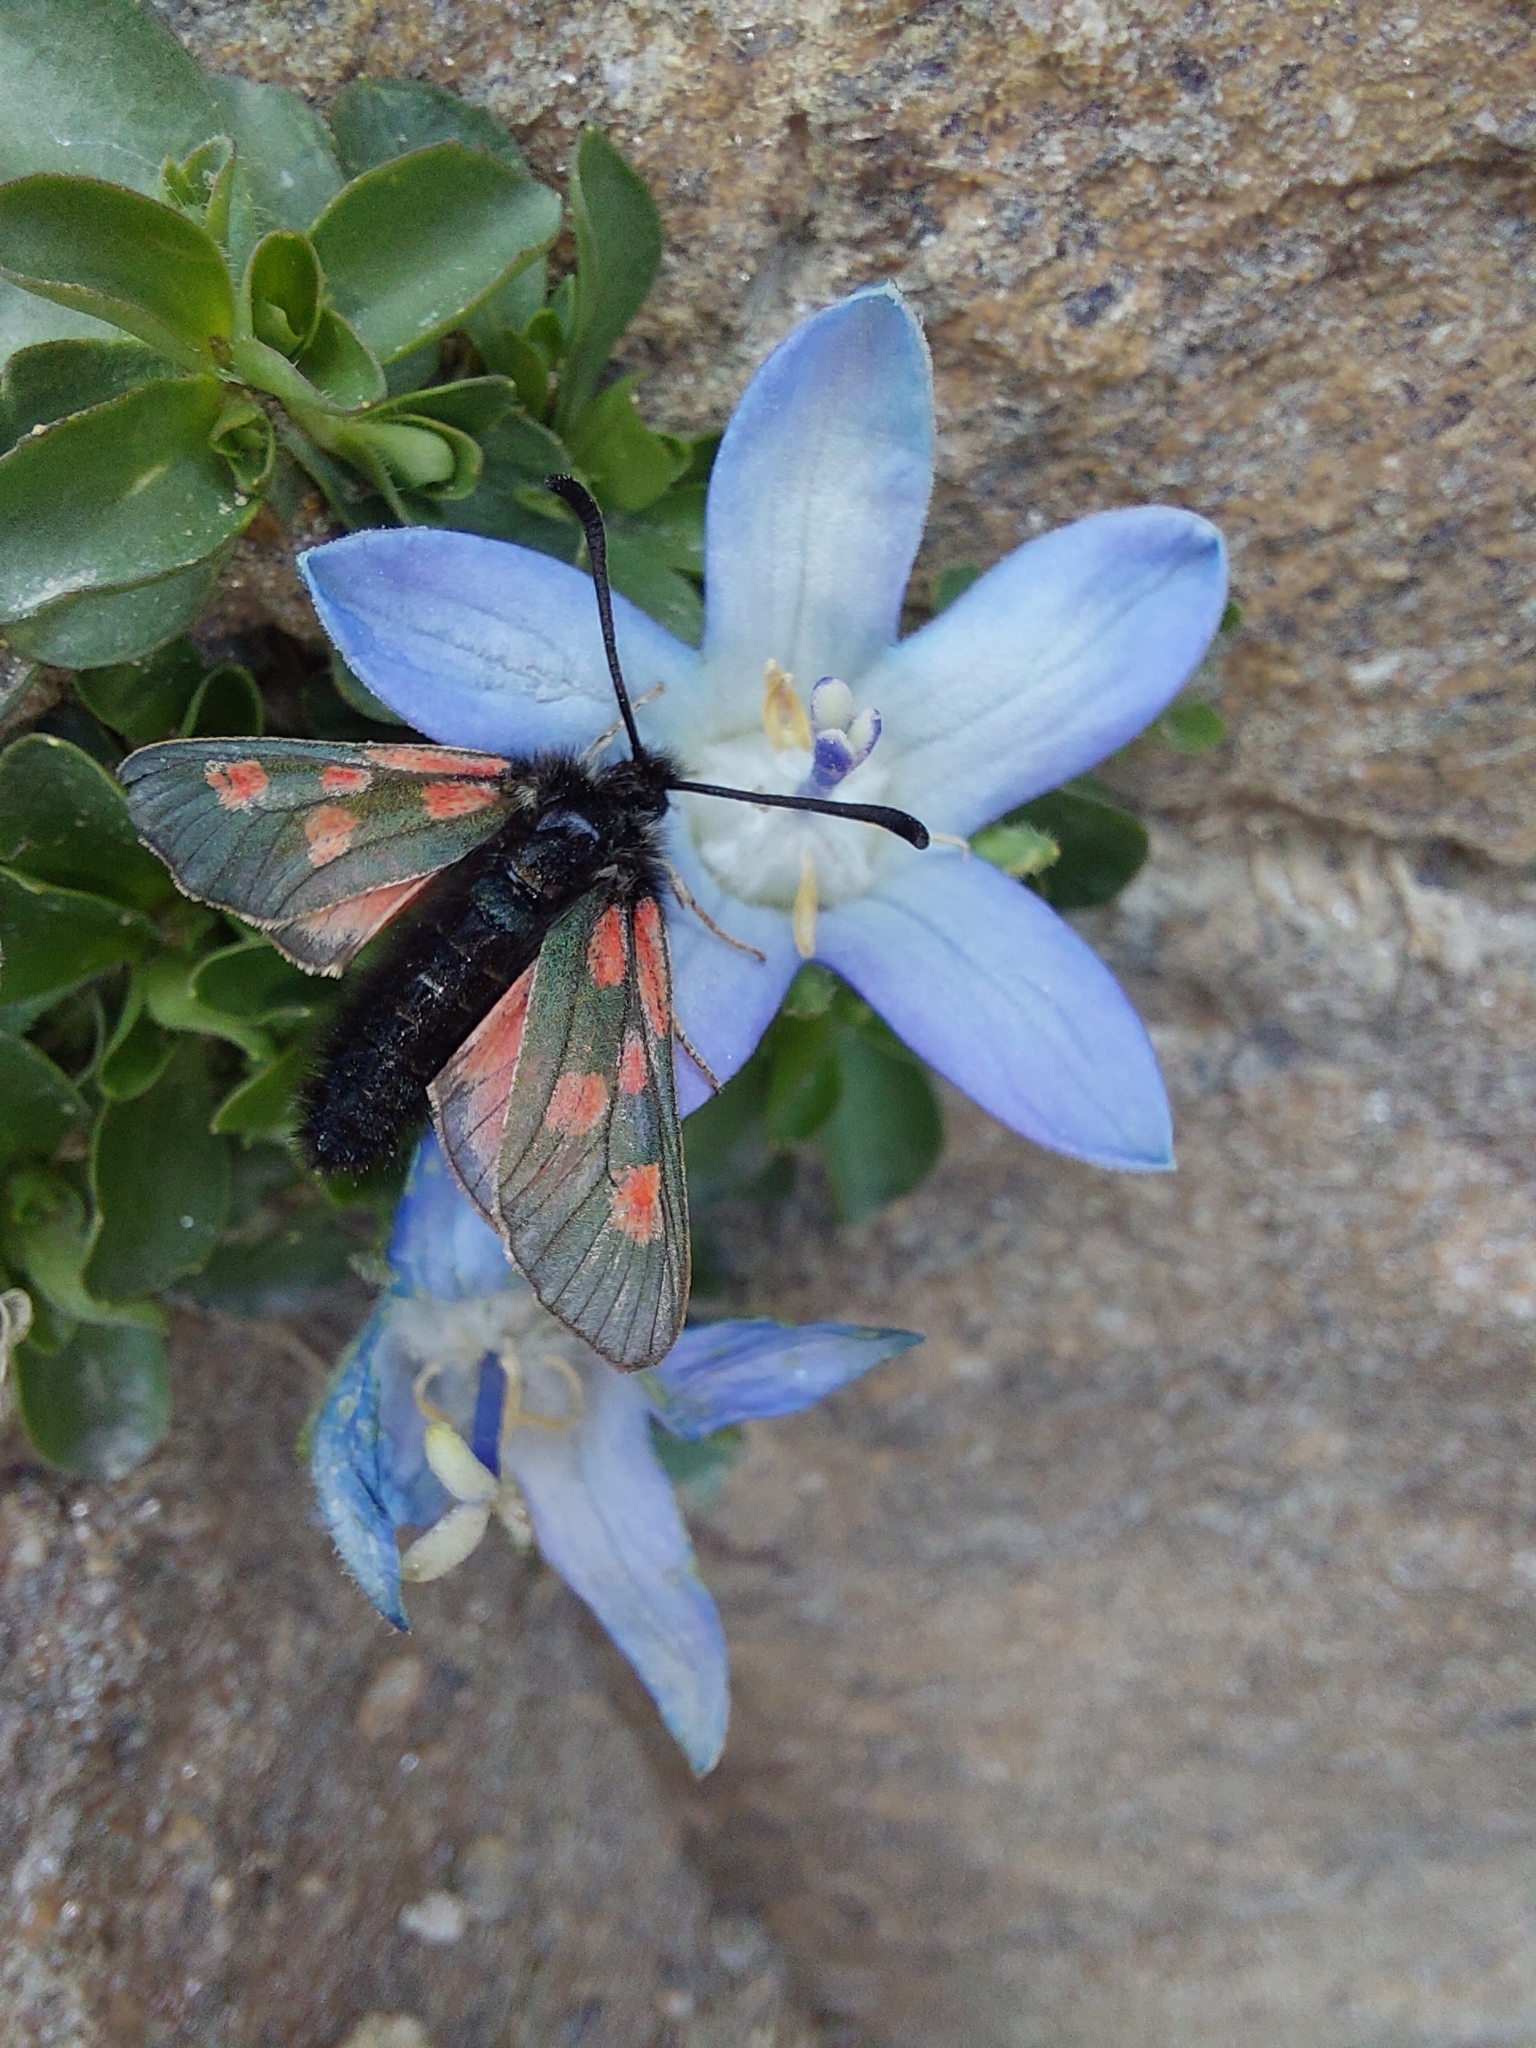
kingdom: Animalia
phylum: Arthropoda
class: Insecta
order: Lepidoptera
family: Zygaenidae
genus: Zygaena
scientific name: Zygaena exulans
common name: Scotch burnet
